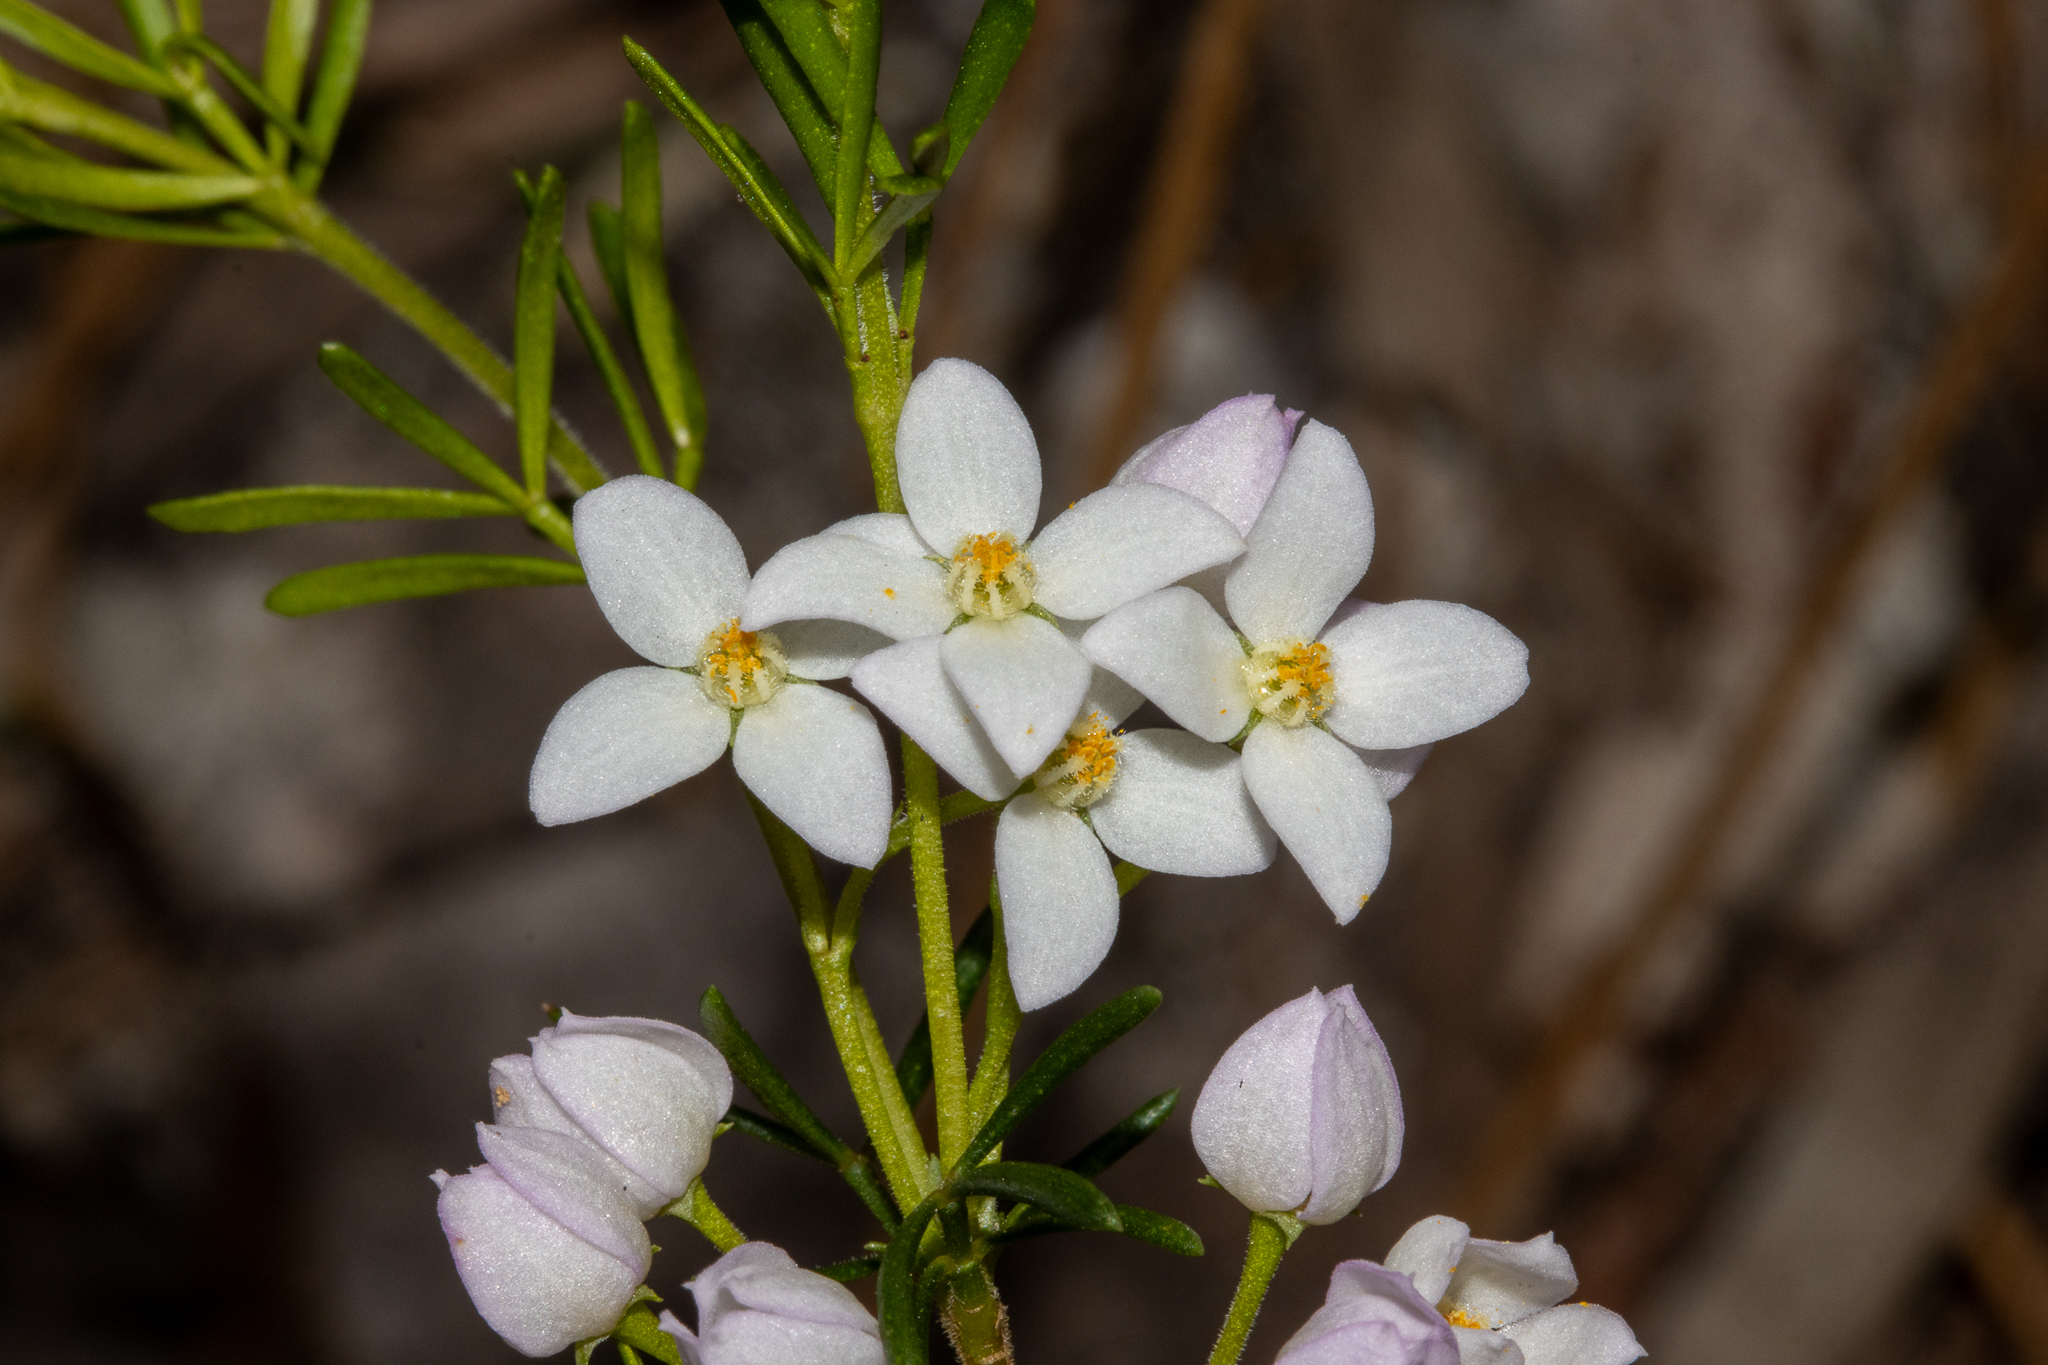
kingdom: Plantae
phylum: Tracheophyta
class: Magnoliopsida
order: Sapindales
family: Rutaceae
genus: Boronia
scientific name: Boronia pilosa
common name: Hairy boronia
